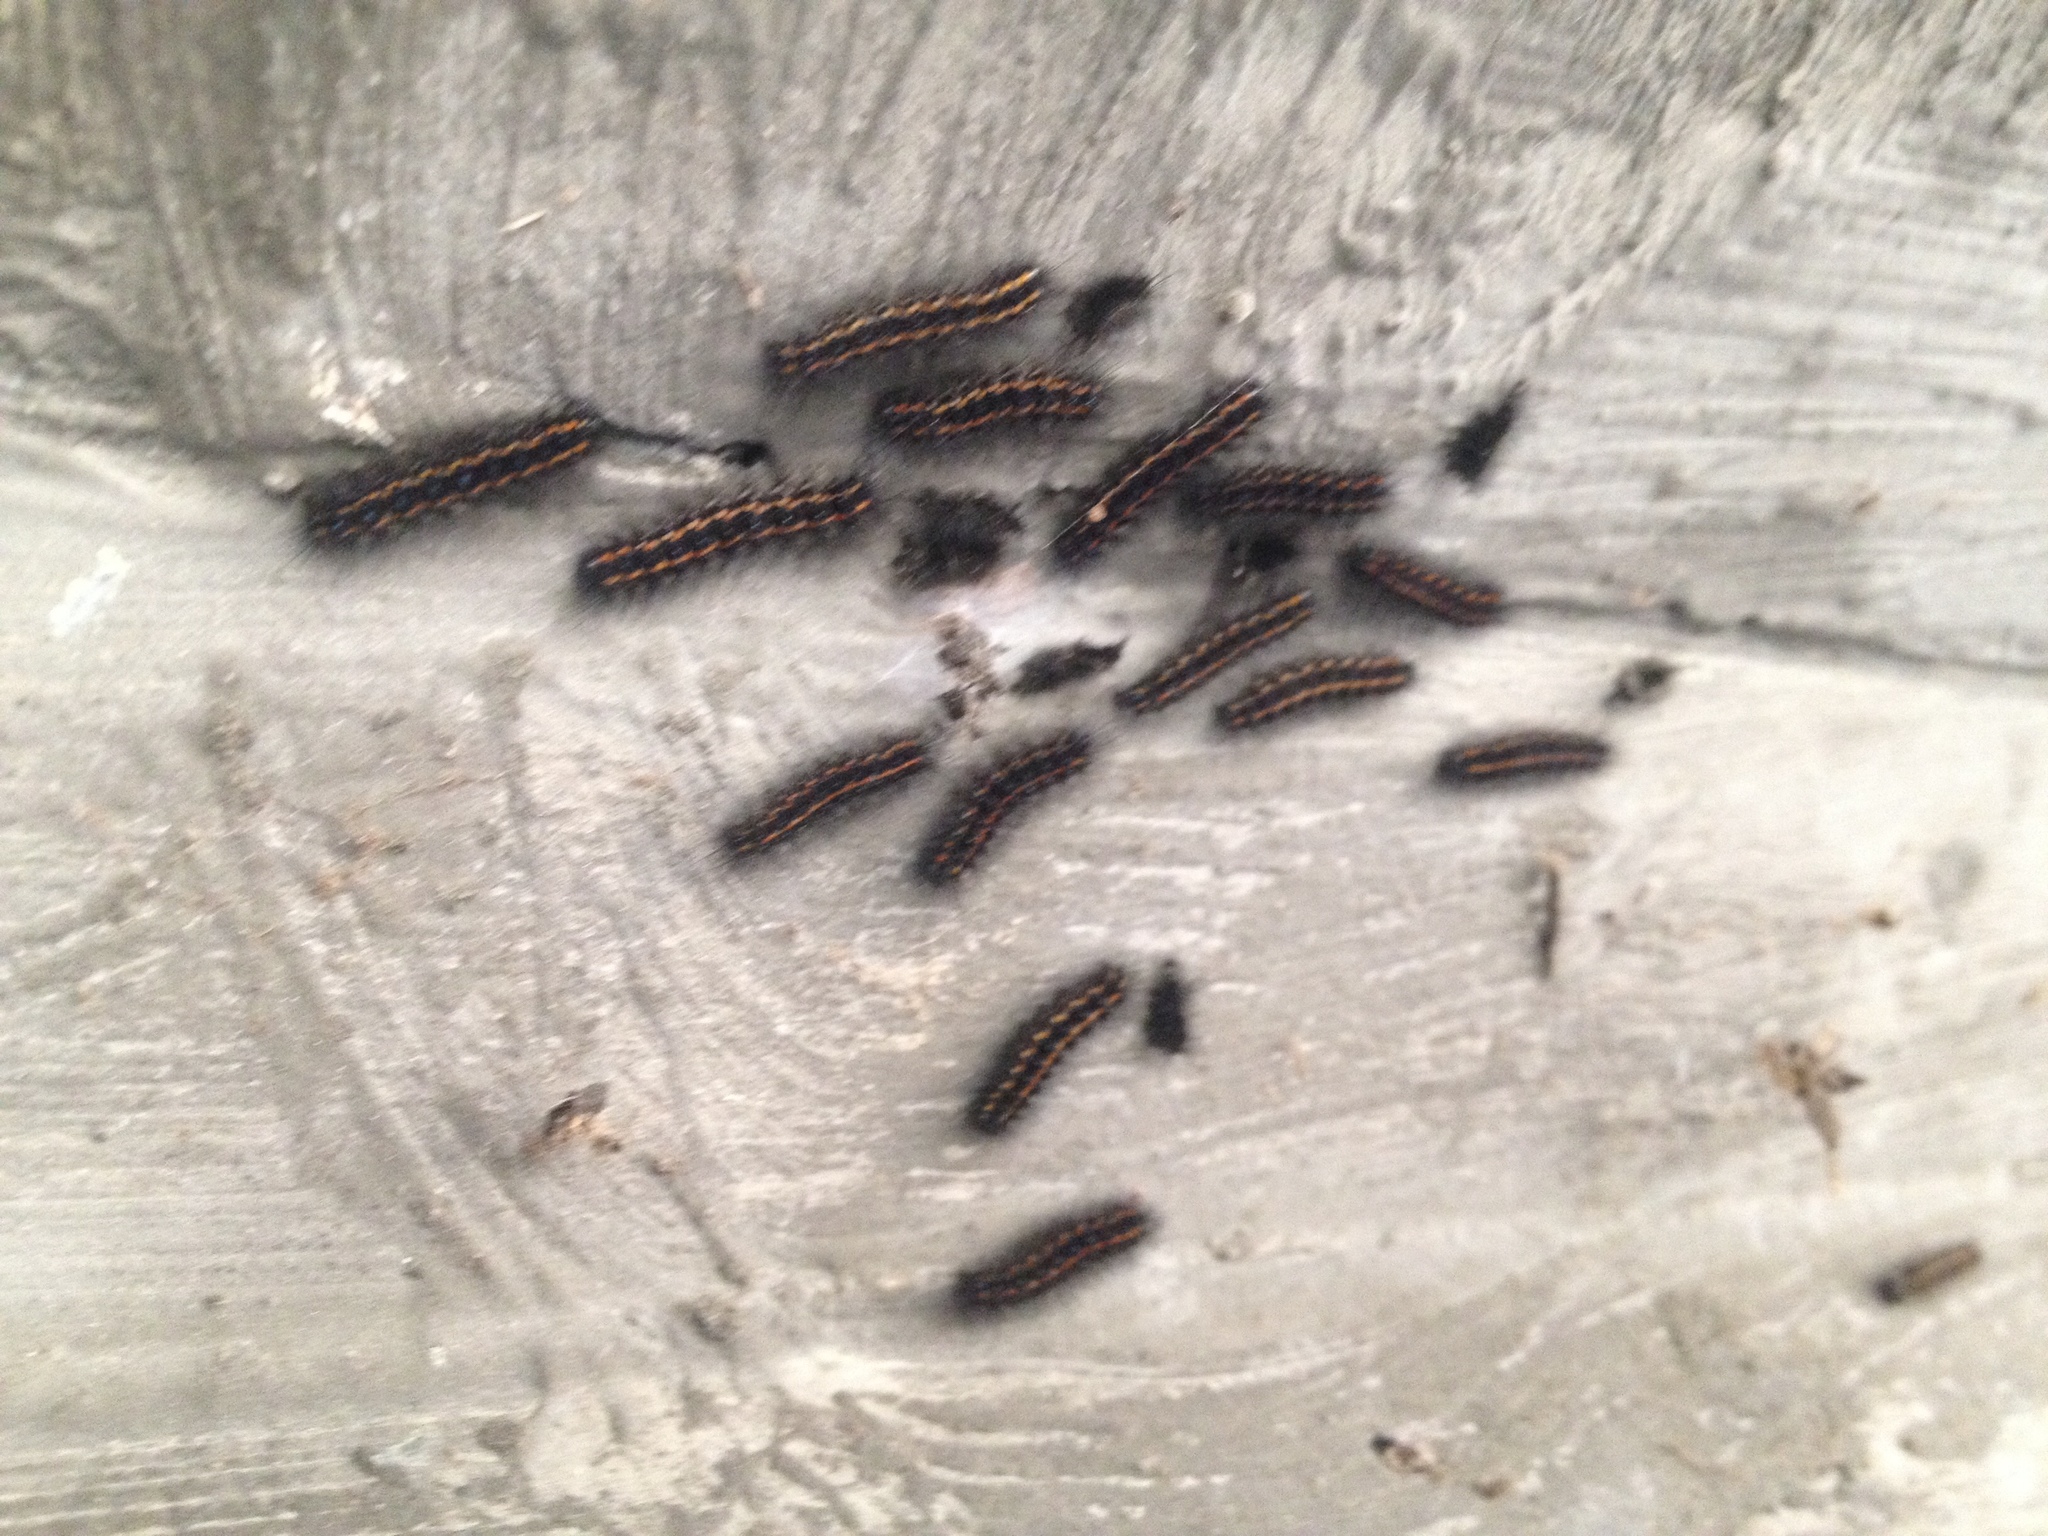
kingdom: Animalia
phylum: Arthropoda
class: Insecta
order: Lepidoptera
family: Erebidae
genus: Nyctemera
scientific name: Nyctemera annulatum
